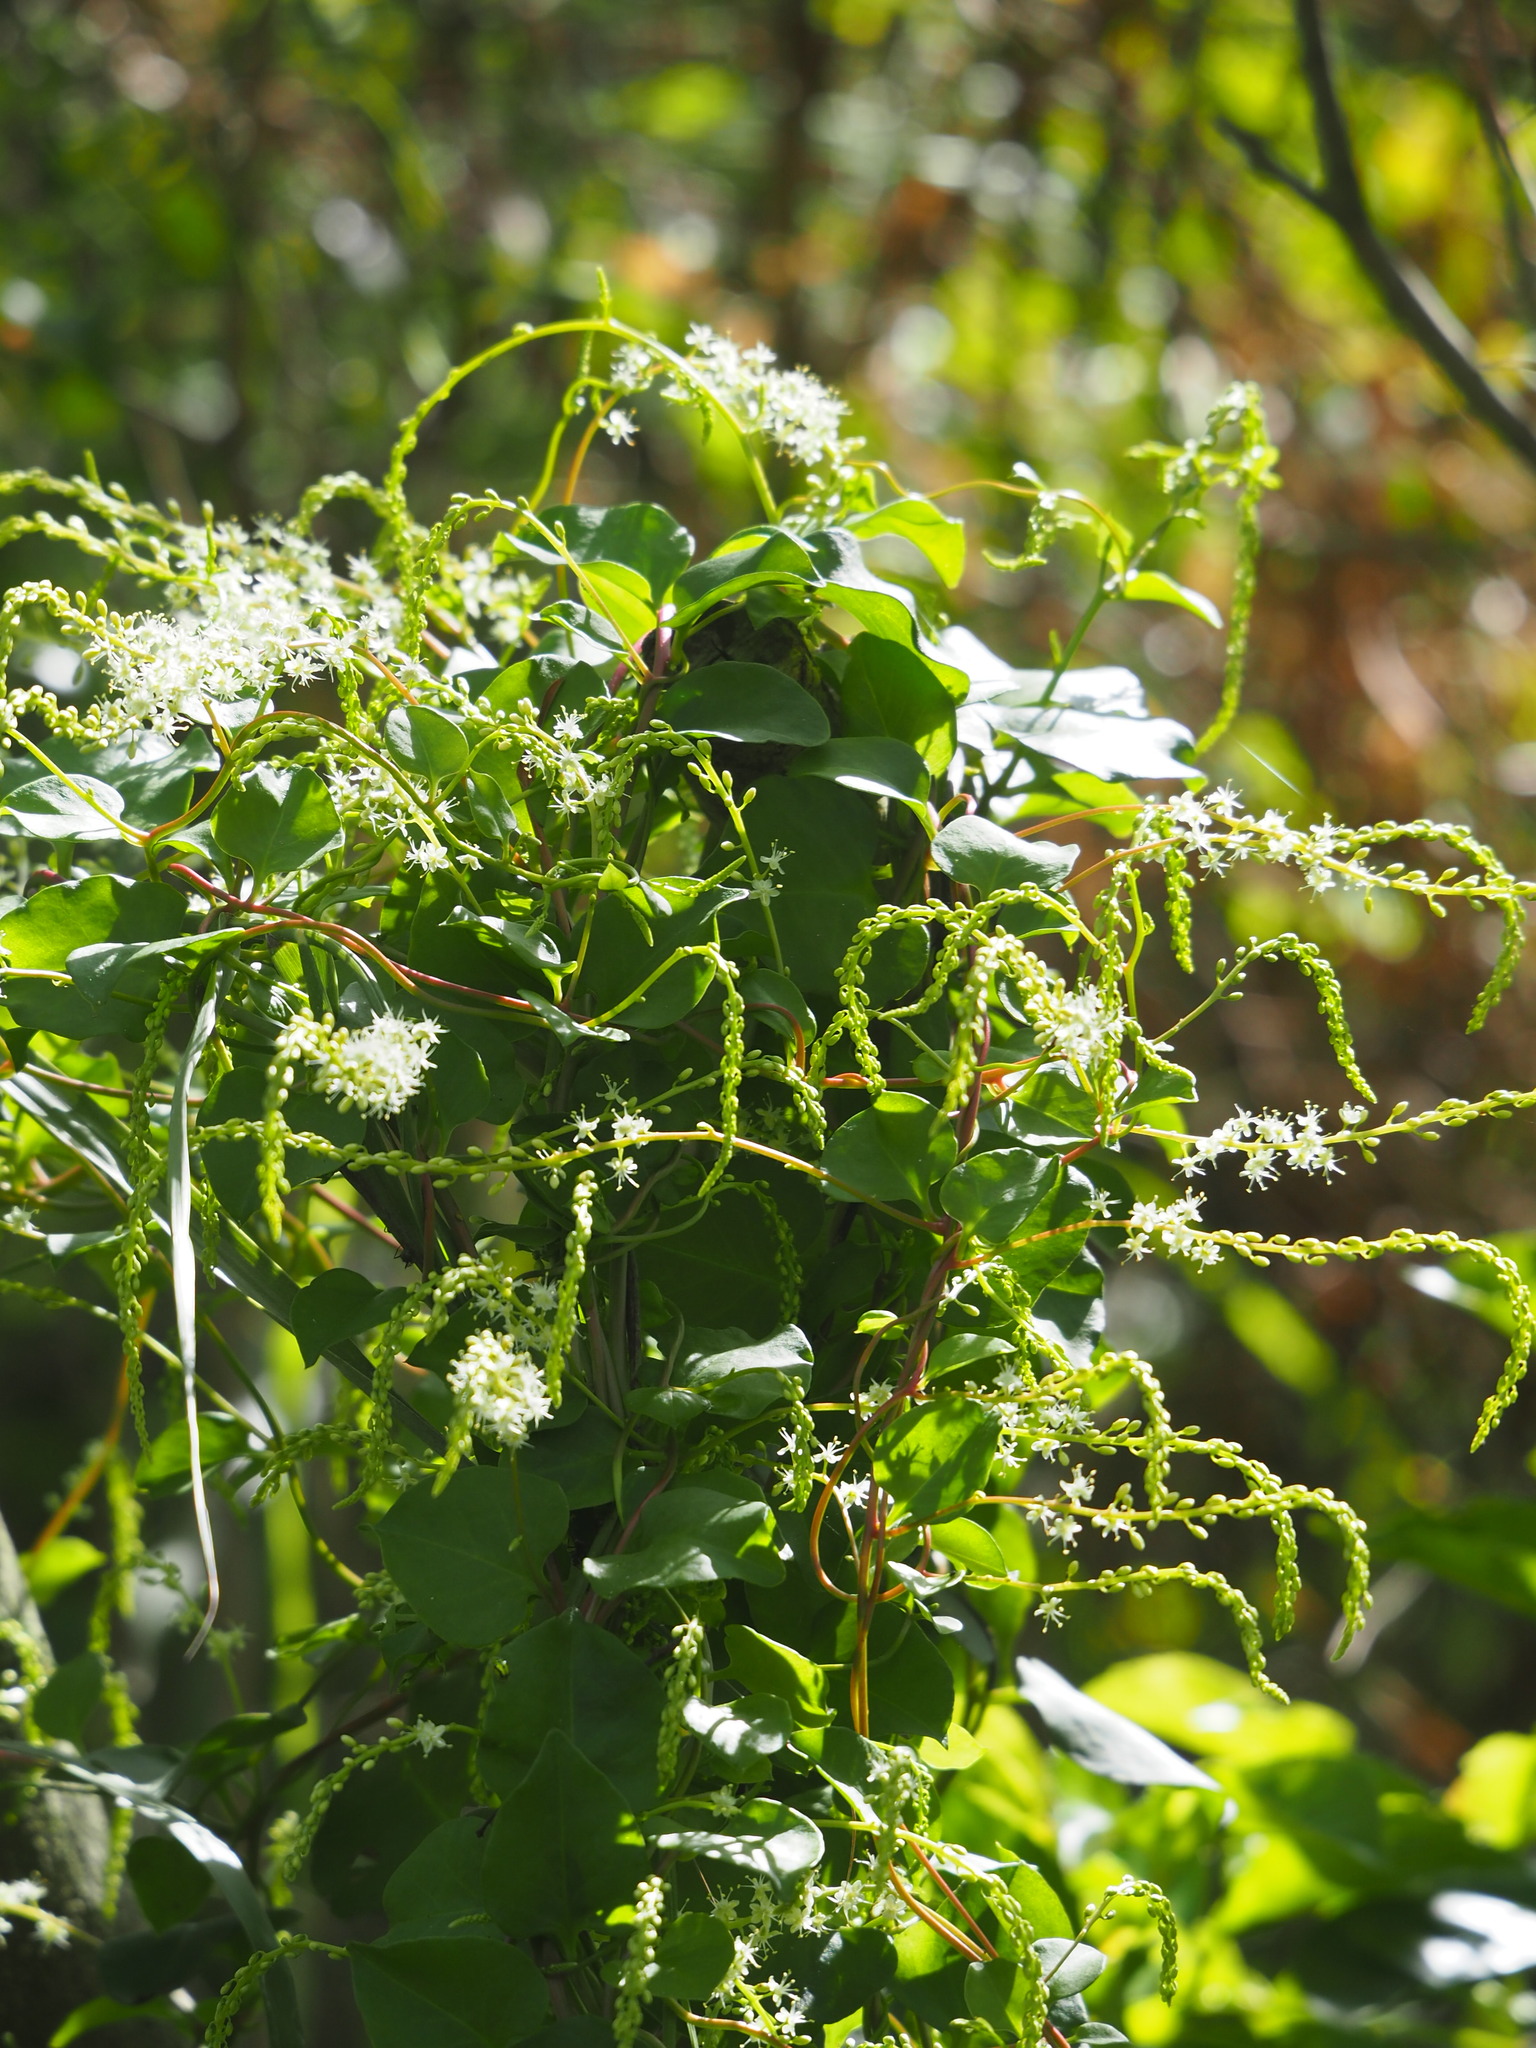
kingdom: Plantae
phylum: Tracheophyta
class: Magnoliopsida
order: Caryophyllales
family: Basellaceae
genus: Anredera
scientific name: Anredera cordifolia
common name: Heartleaf madeiravine
